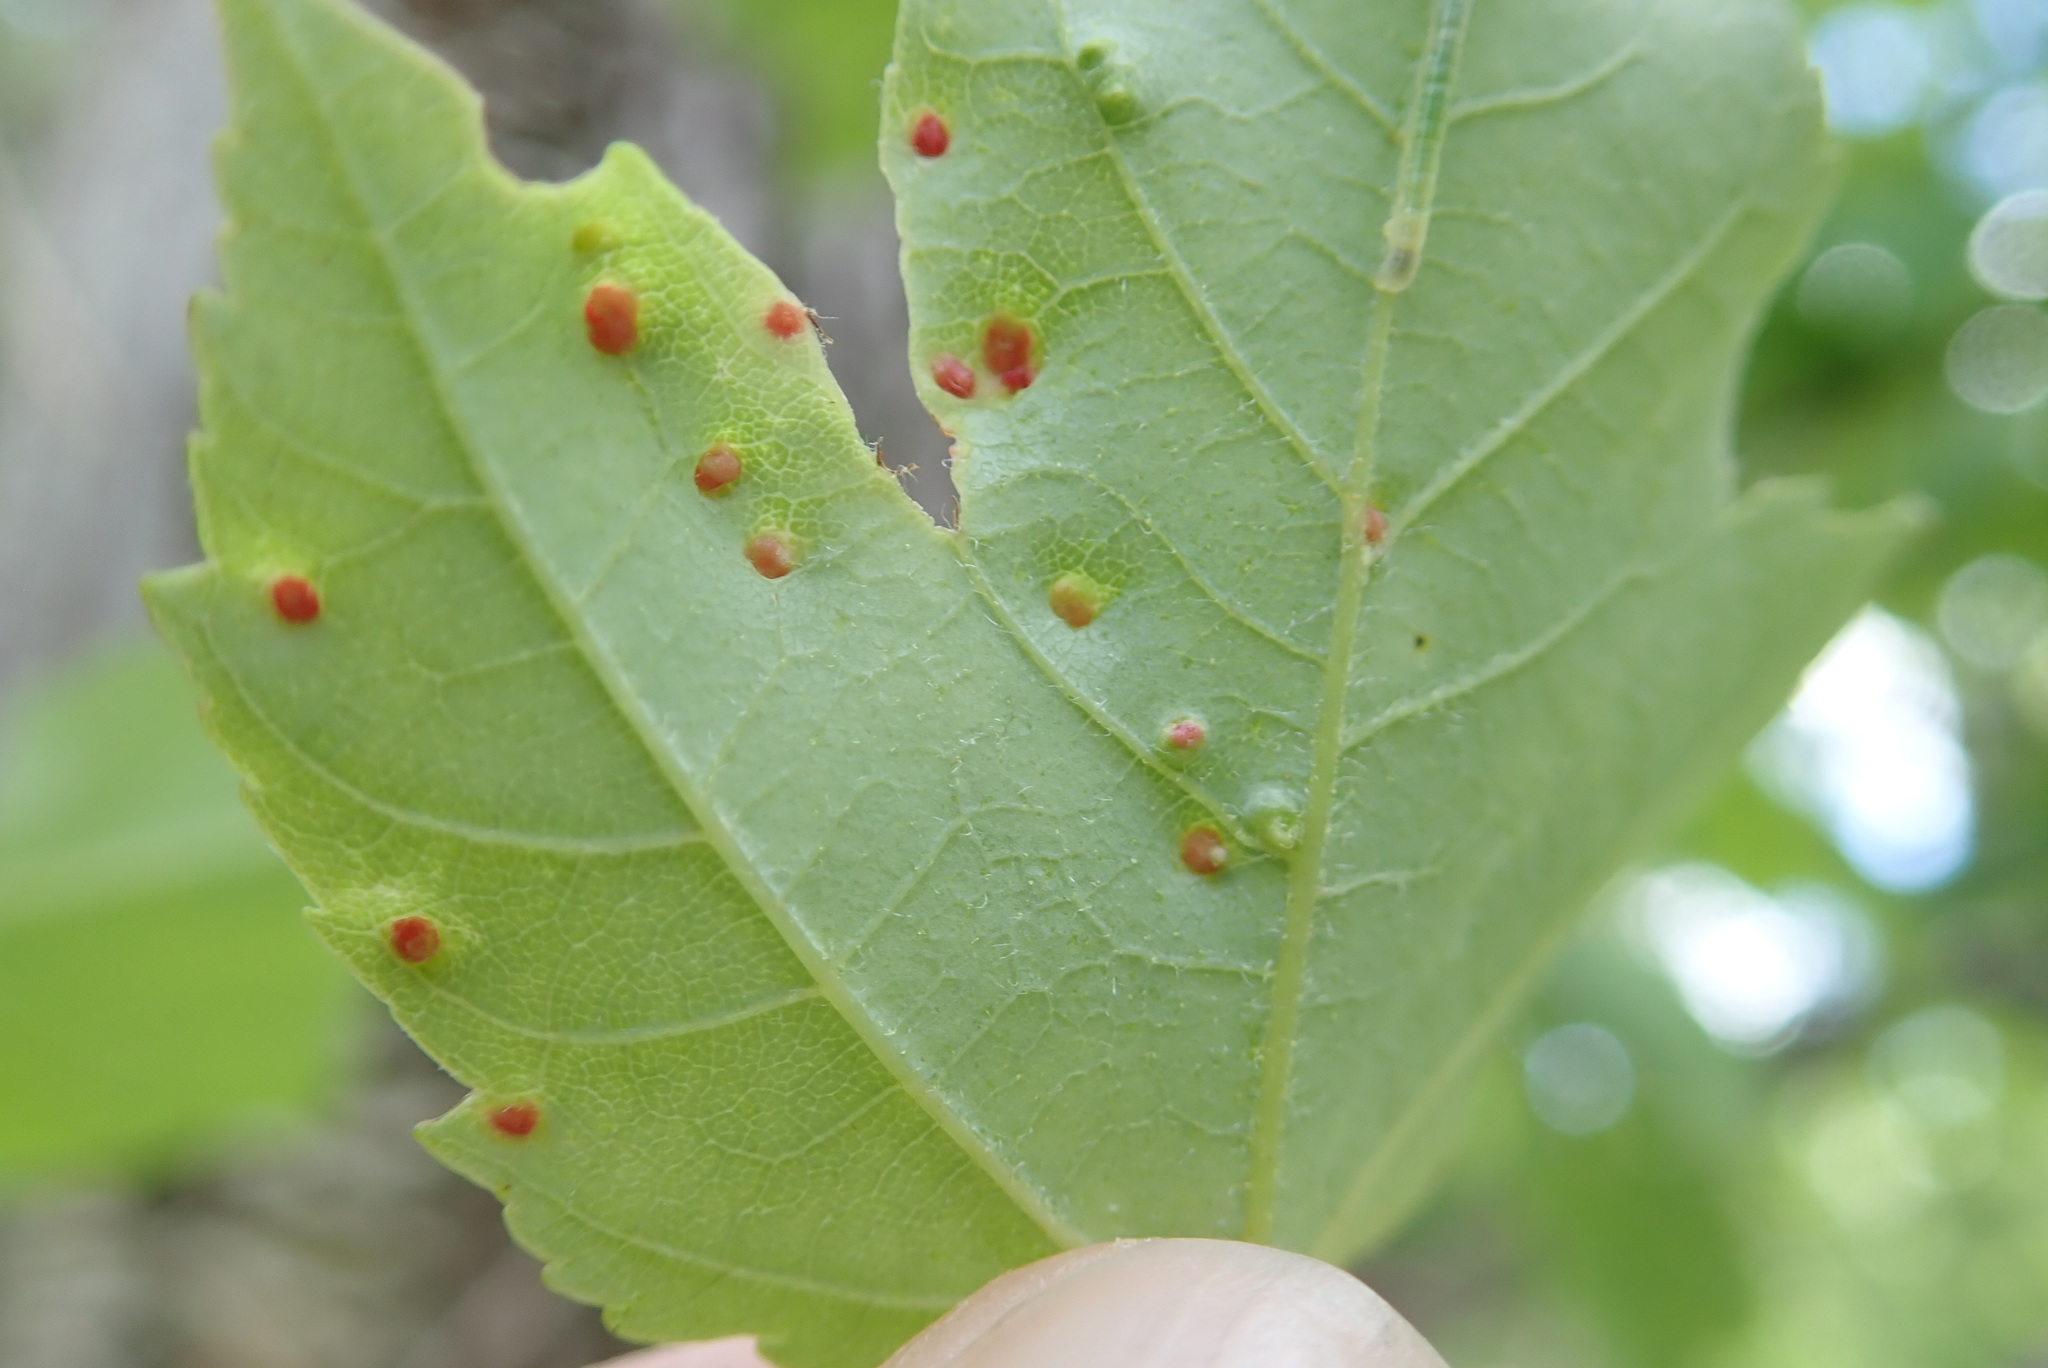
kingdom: Animalia
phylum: Arthropoda
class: Arachnida
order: Trombidiformes
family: Eriophyidae
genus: Vasates
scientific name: Vasates quadripedes
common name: Maple bladder gall mite
